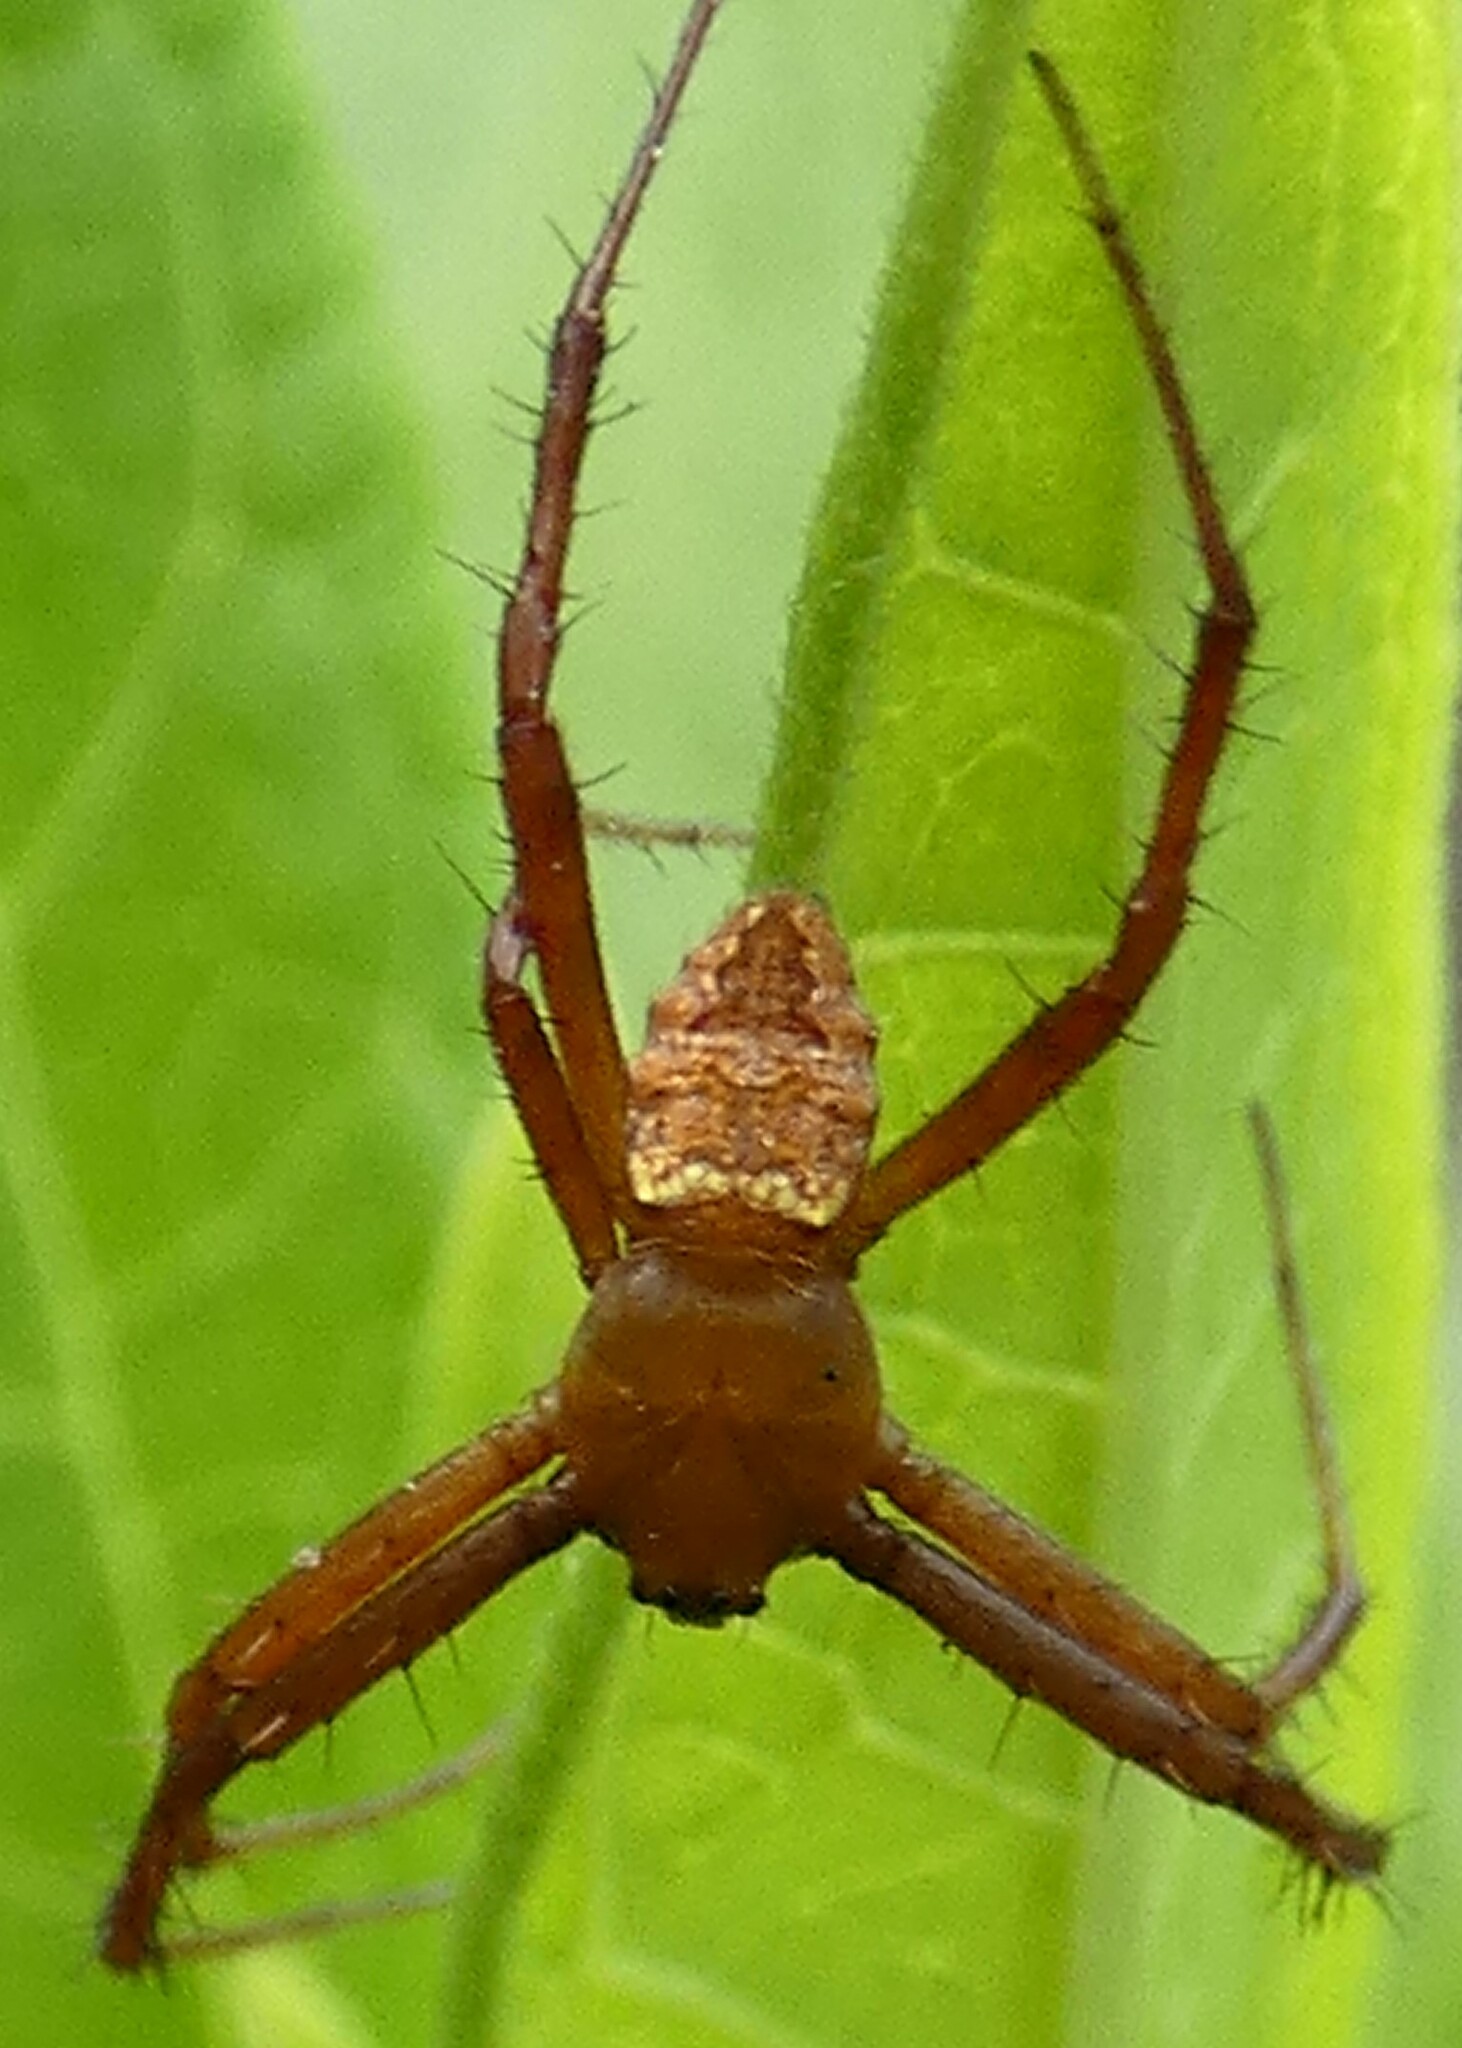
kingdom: Animalia
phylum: Arthropoda
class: Arachnida
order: Araneae
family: Araneidae
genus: Gea
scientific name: Gea heptagon
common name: Orb weavers
